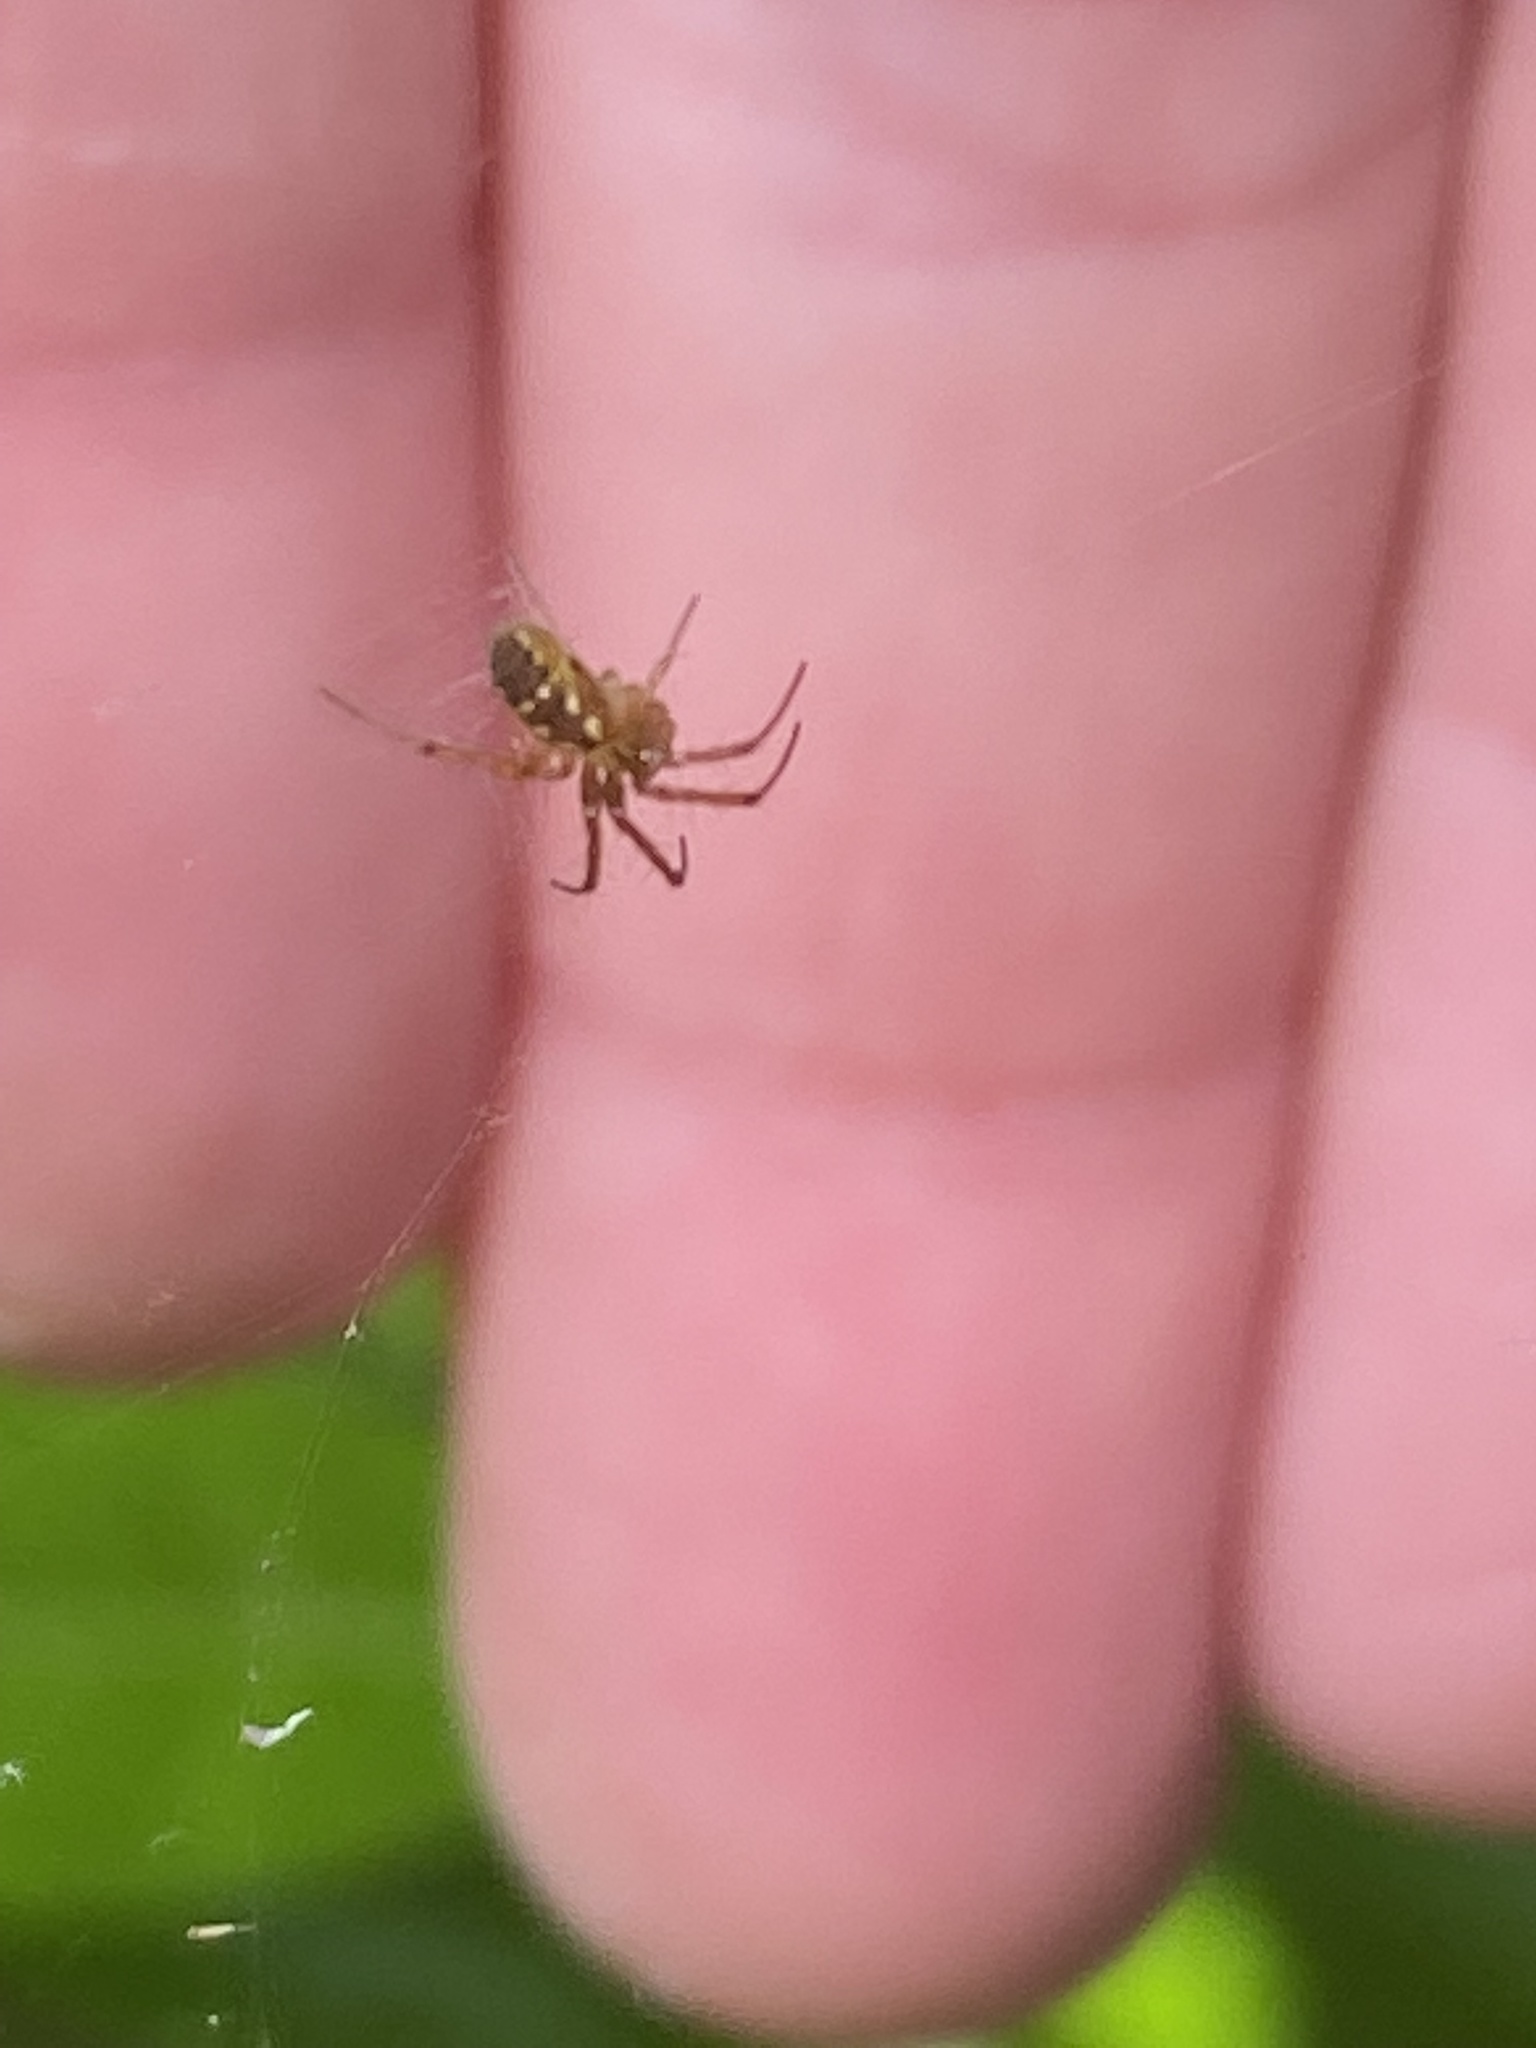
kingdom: Animalia
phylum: Arthropoda
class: Arachnida
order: Araneae
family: Araneidae
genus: Mangora
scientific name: Mangora placida
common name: Tuft-legged orbweaver
